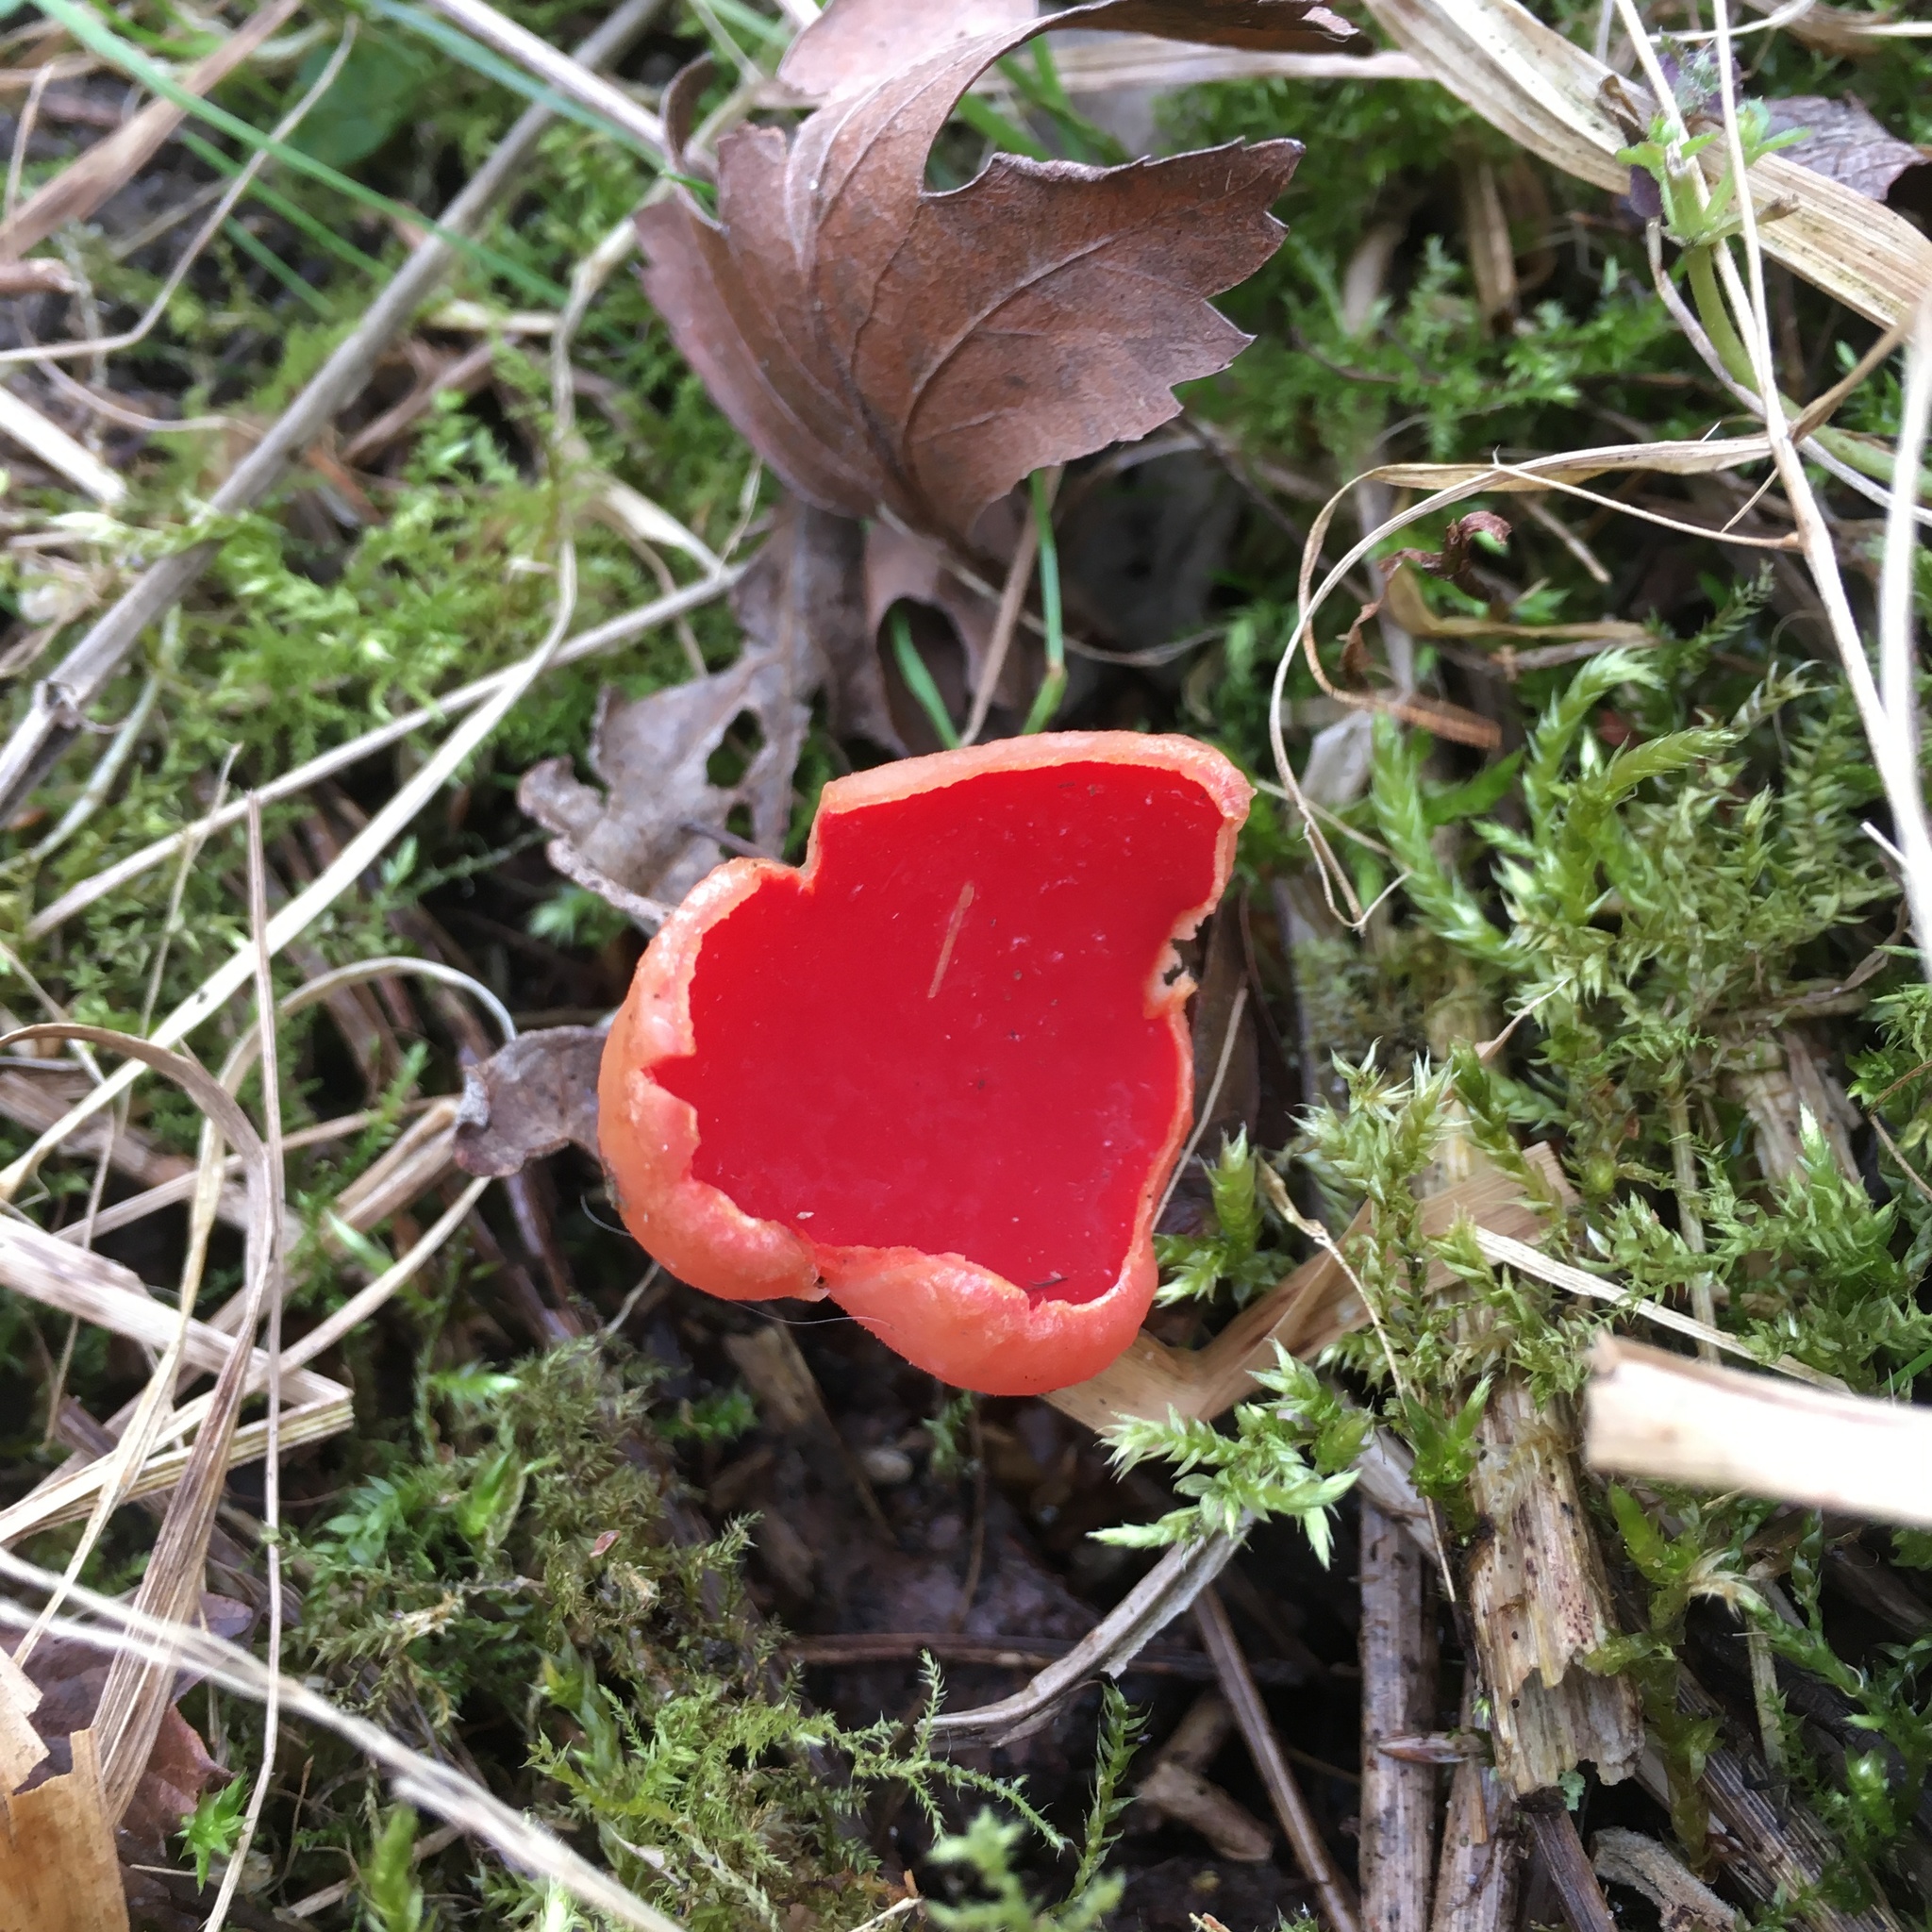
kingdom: Fungi
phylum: Ascomycota
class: Pezizomycetes
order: Pezizales
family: Sarcoscyphaceae
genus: Sarcoscypha
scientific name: Sarcoscypha
